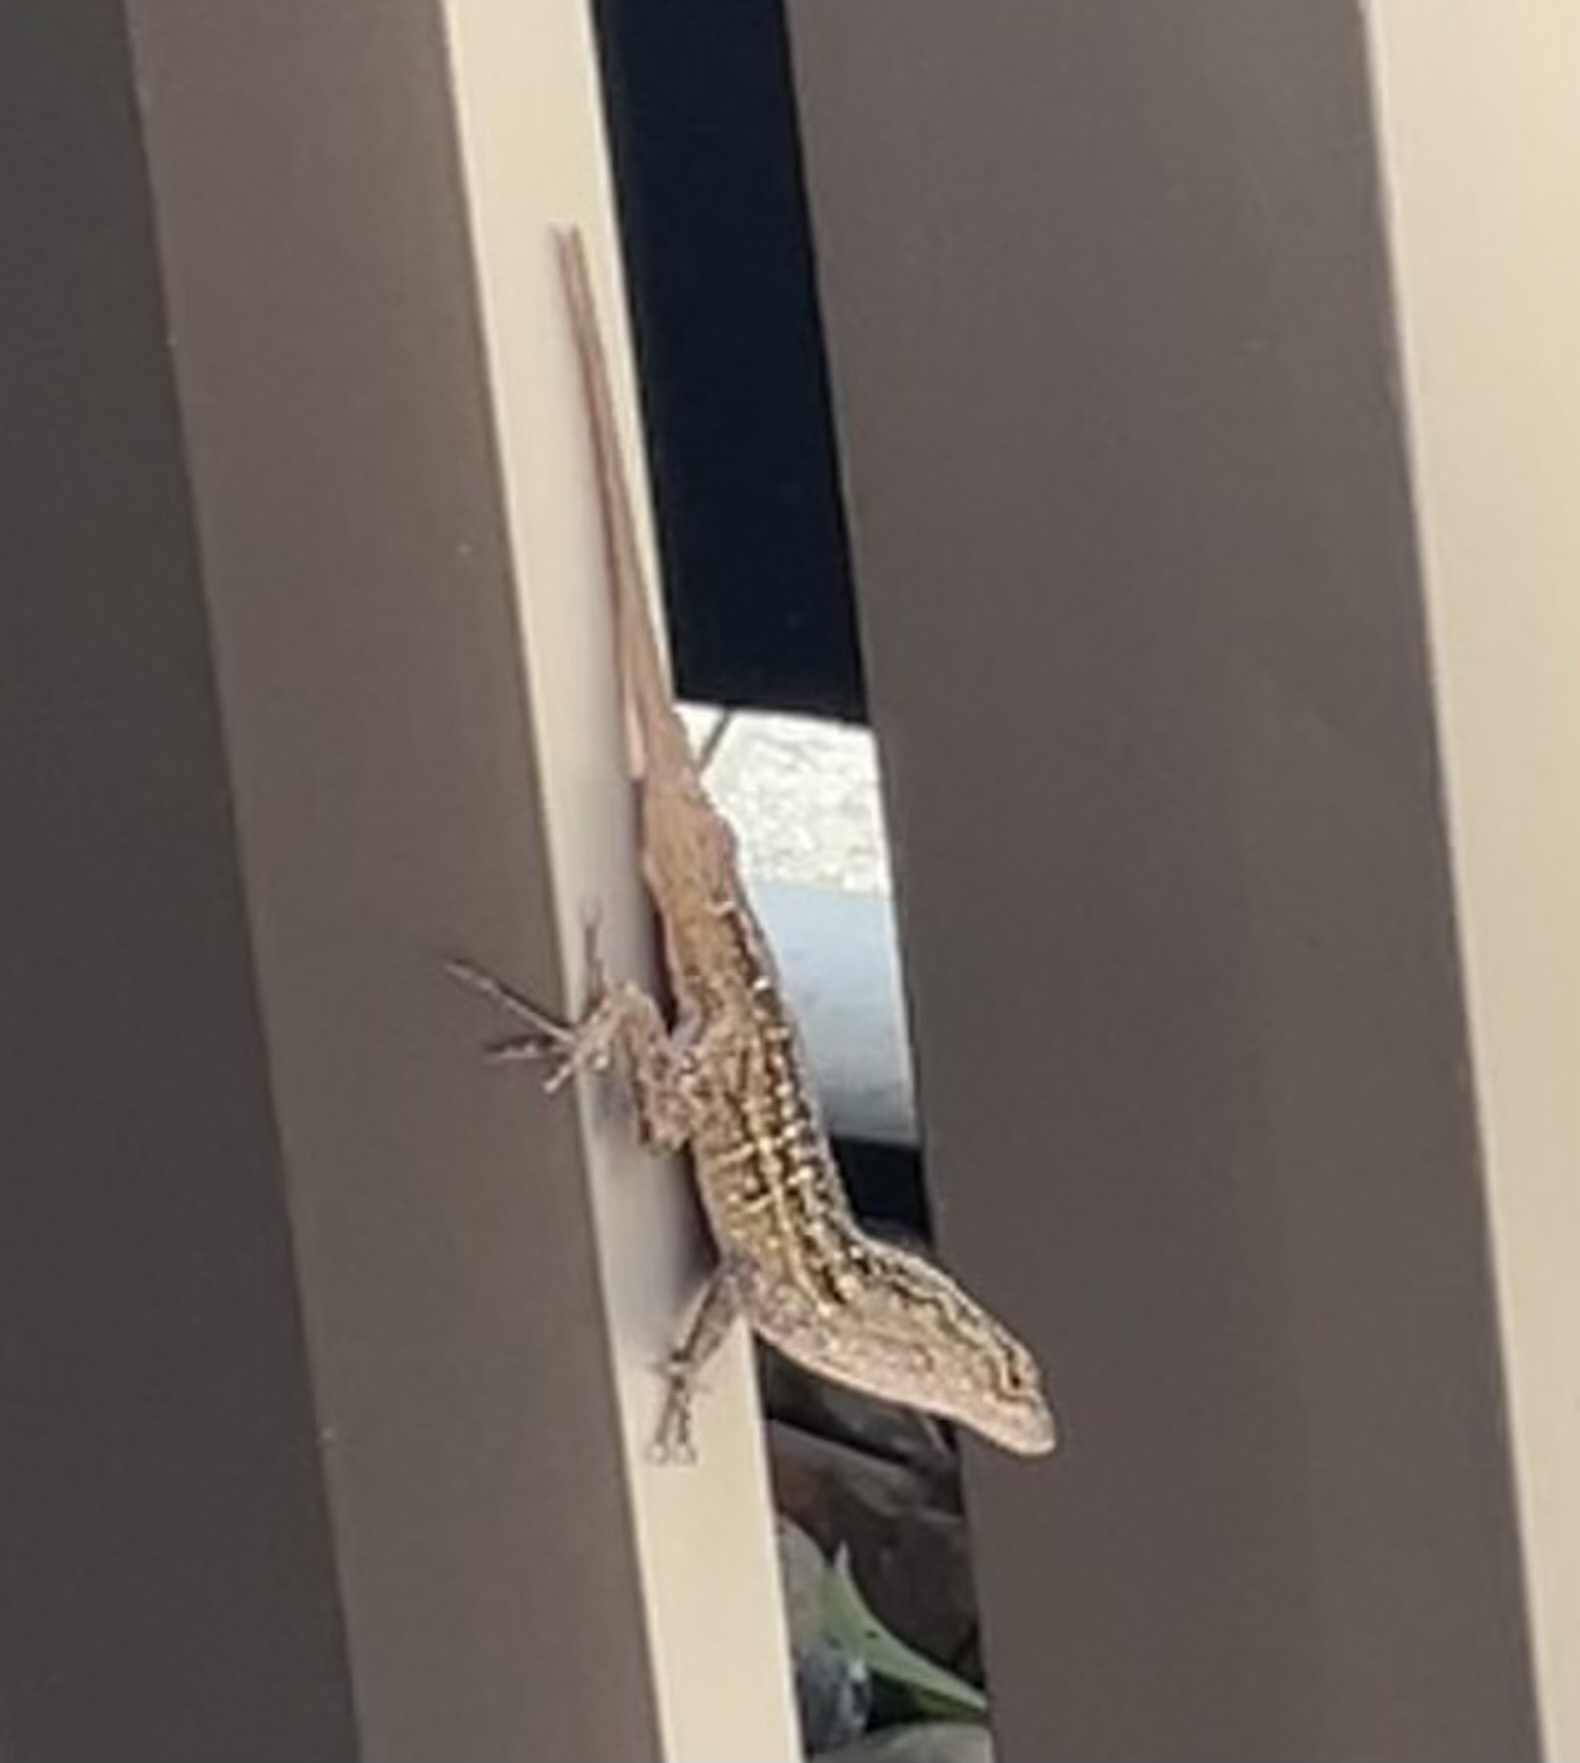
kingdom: Animalia
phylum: Chordata
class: Squamata
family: Dactyloidae
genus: Anolis
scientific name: Anolis sagrei
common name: Brown anole
